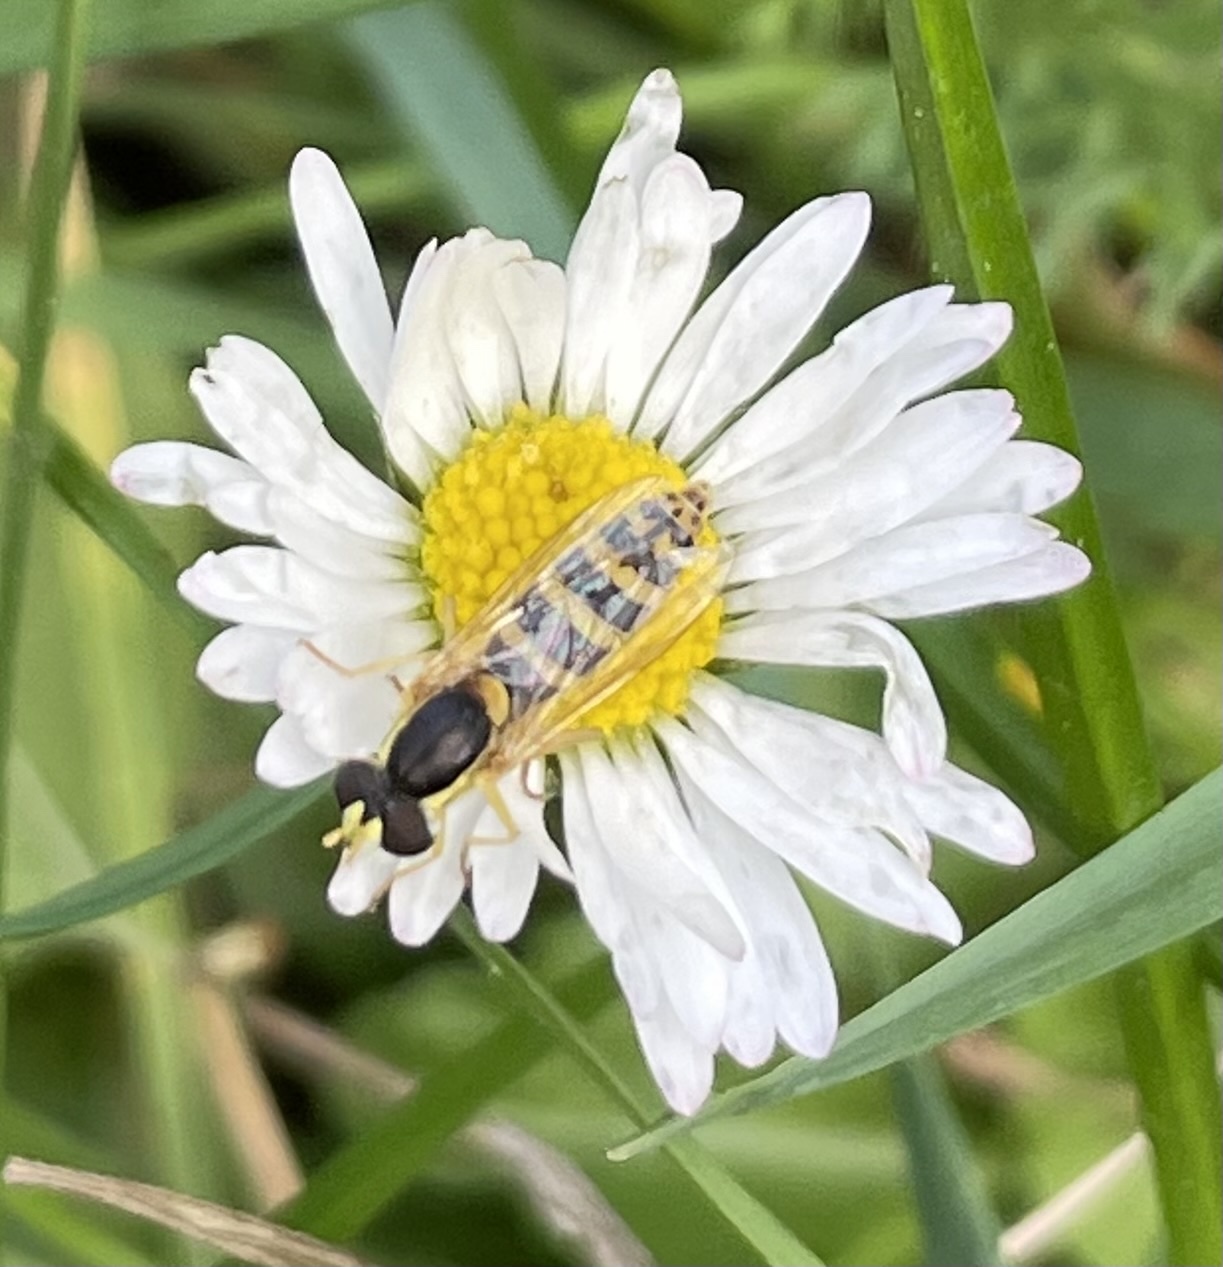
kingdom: Animalia
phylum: Arthropoda
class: Insecta
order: Diptera
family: Syrphidae
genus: Sphaerophoria
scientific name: Sphaerophoria
